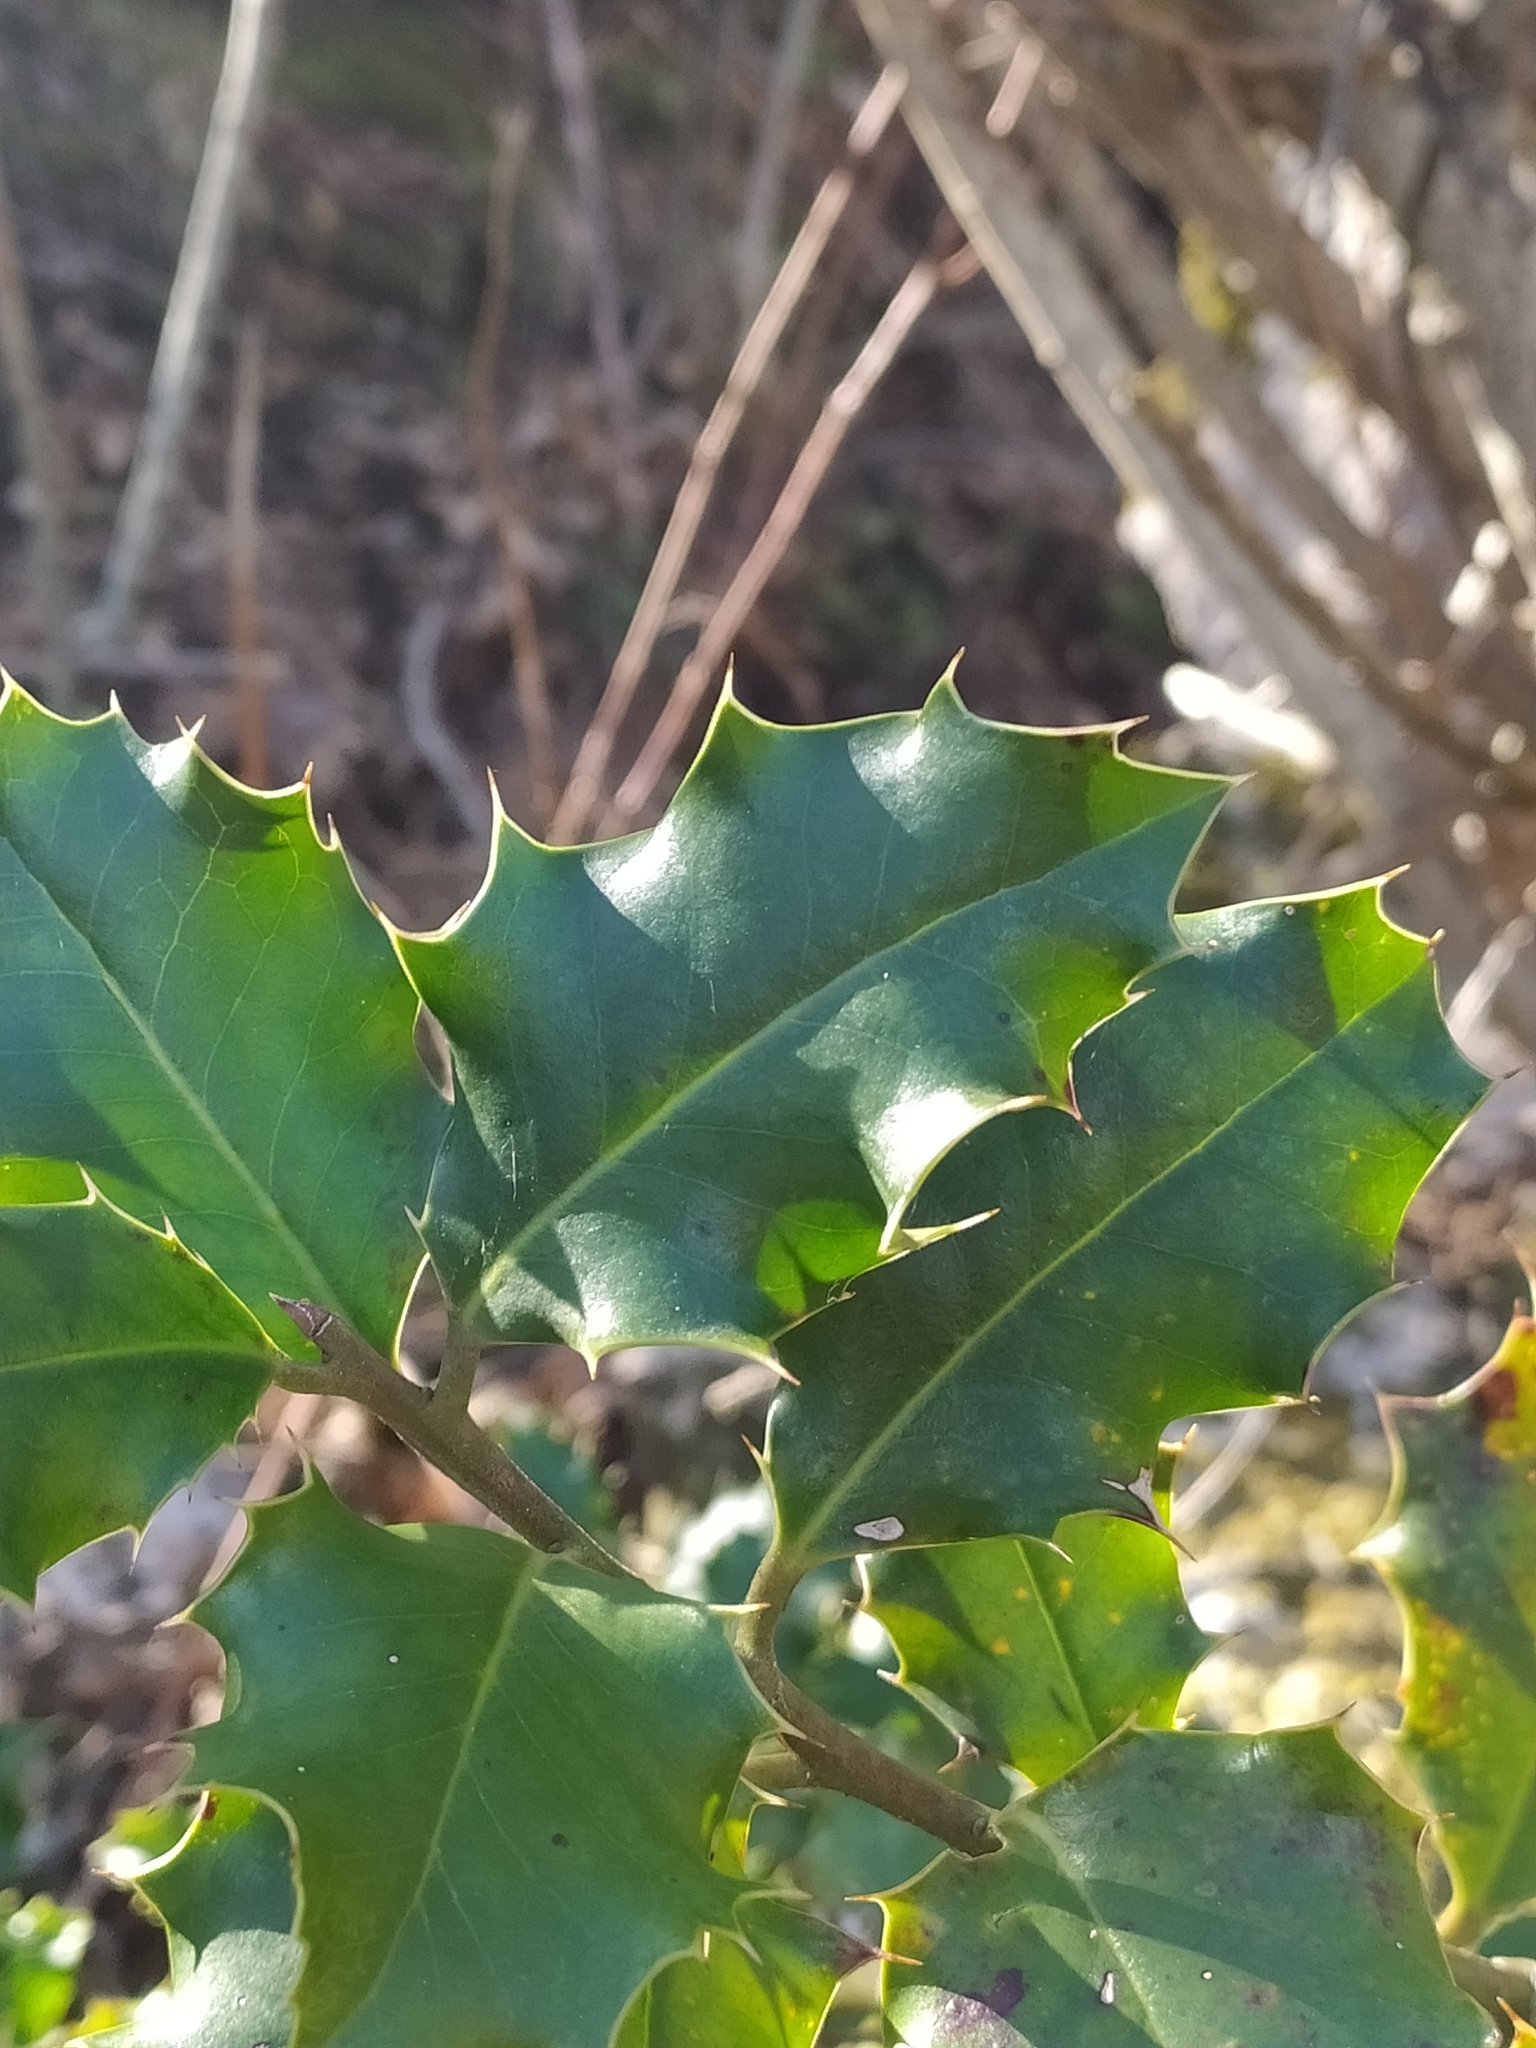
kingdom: Plantae
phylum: Tracheophyta
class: Magnoliopsida
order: Aquifoliales
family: Aquifoliaceae
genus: Ilex
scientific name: Ilex aquifolium
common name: English holly
